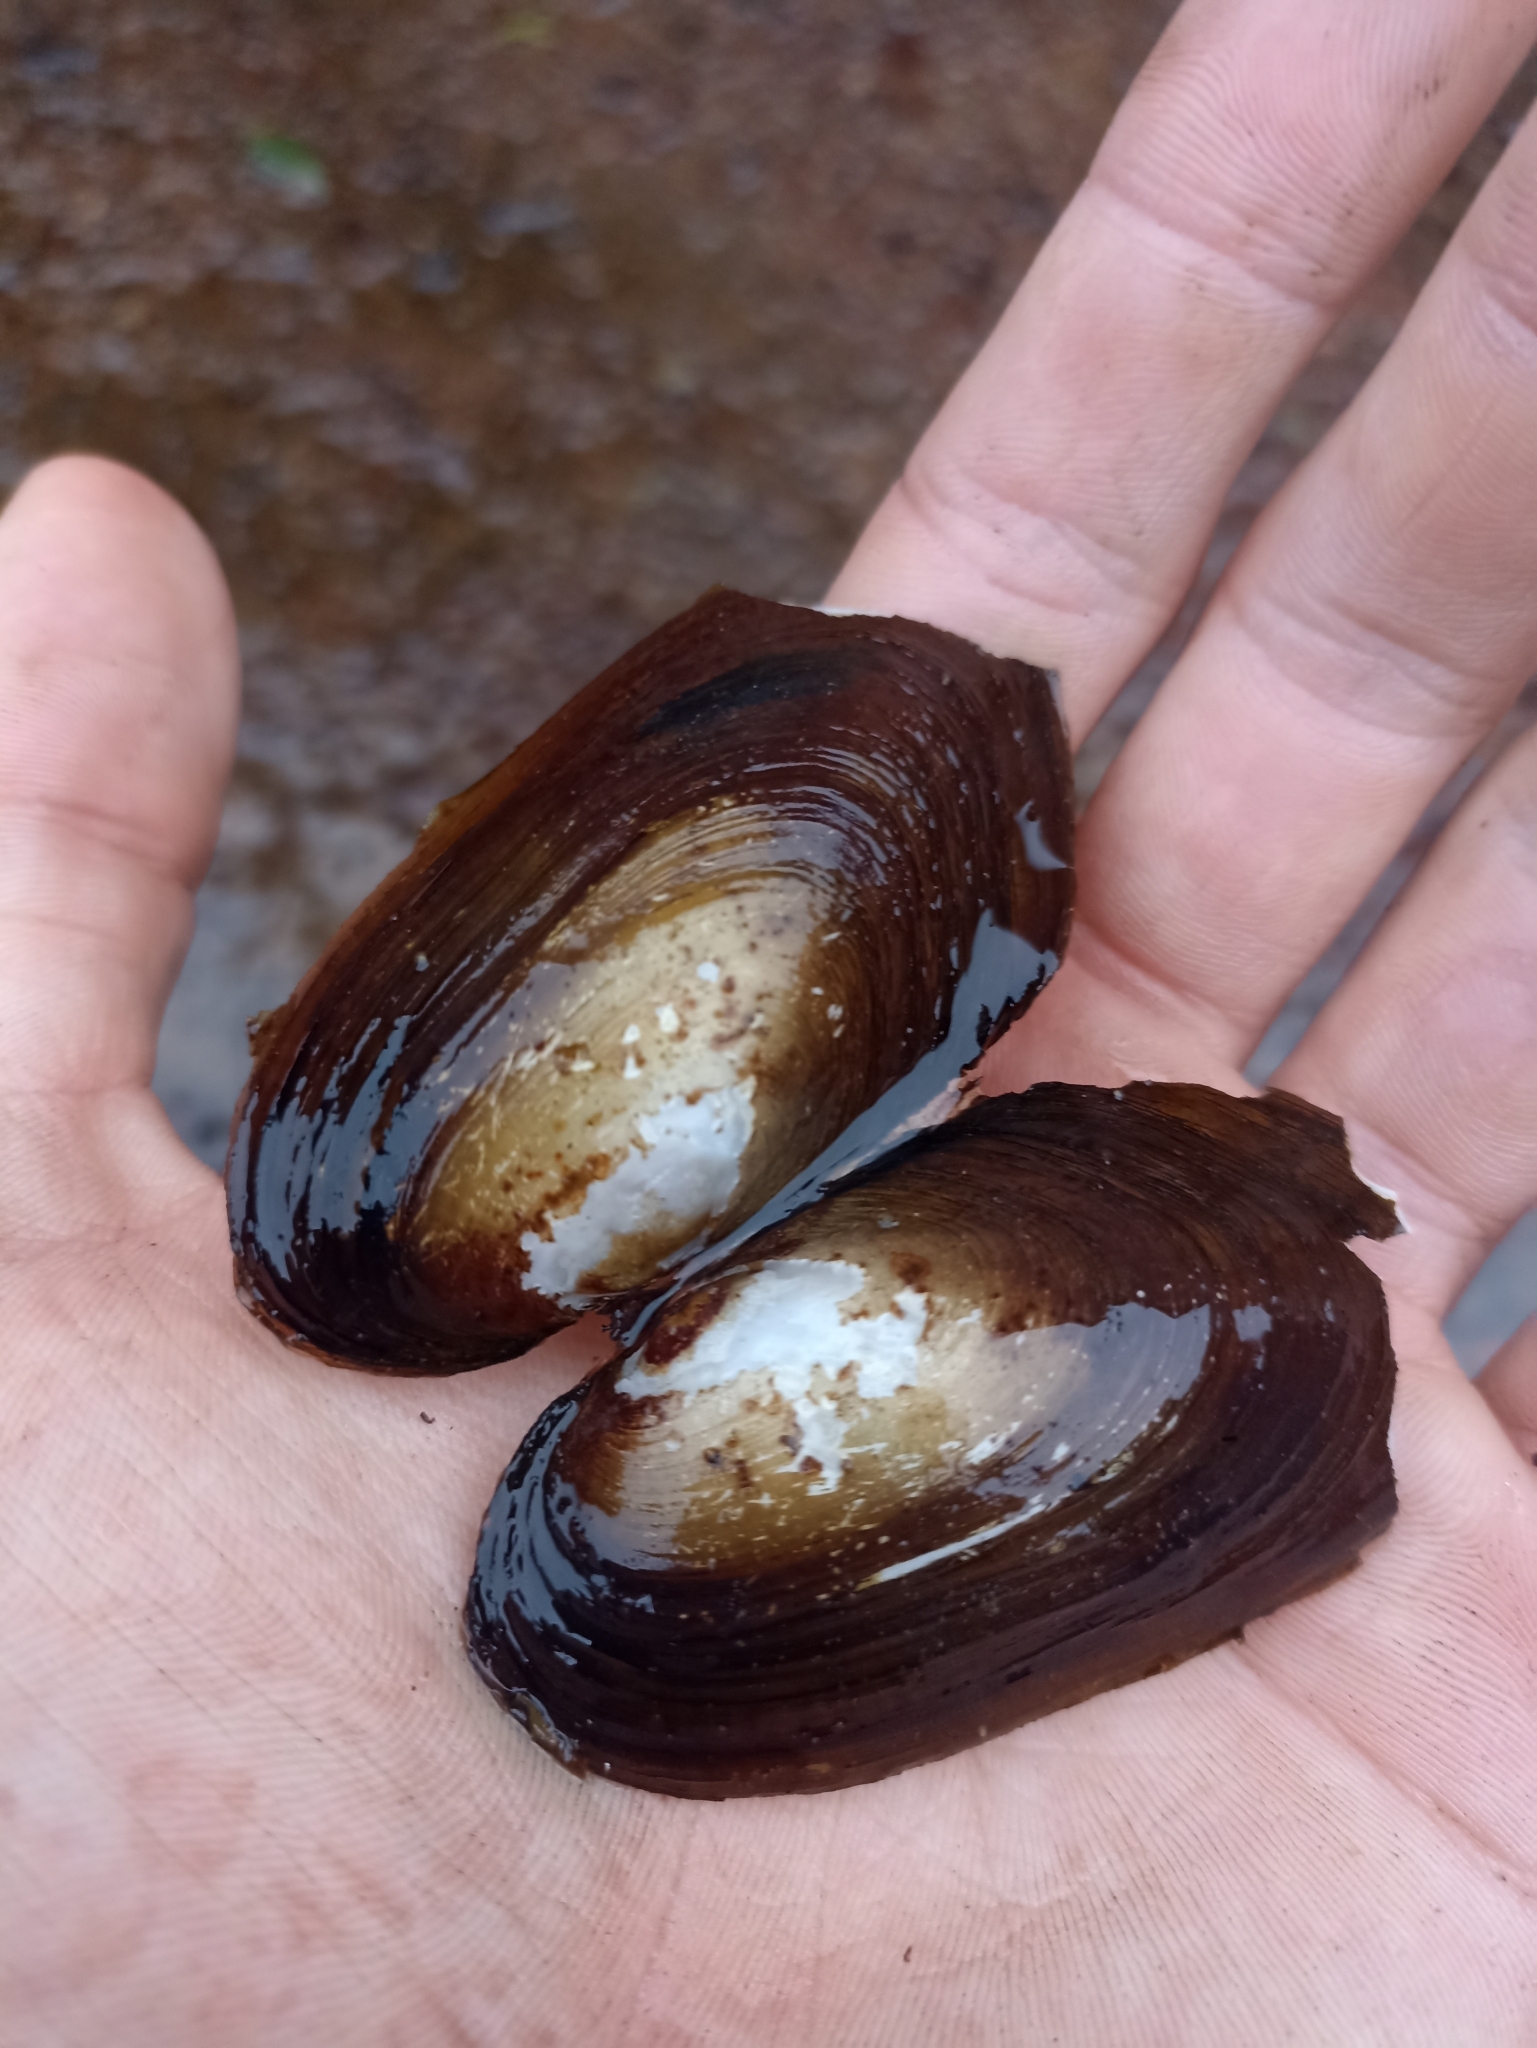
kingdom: Animalia
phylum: Mollusca
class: Bivalvia
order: Unionida
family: Hyriidae
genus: Echyridella
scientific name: Echyridella menziesii
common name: New zealand freshwater mussel
